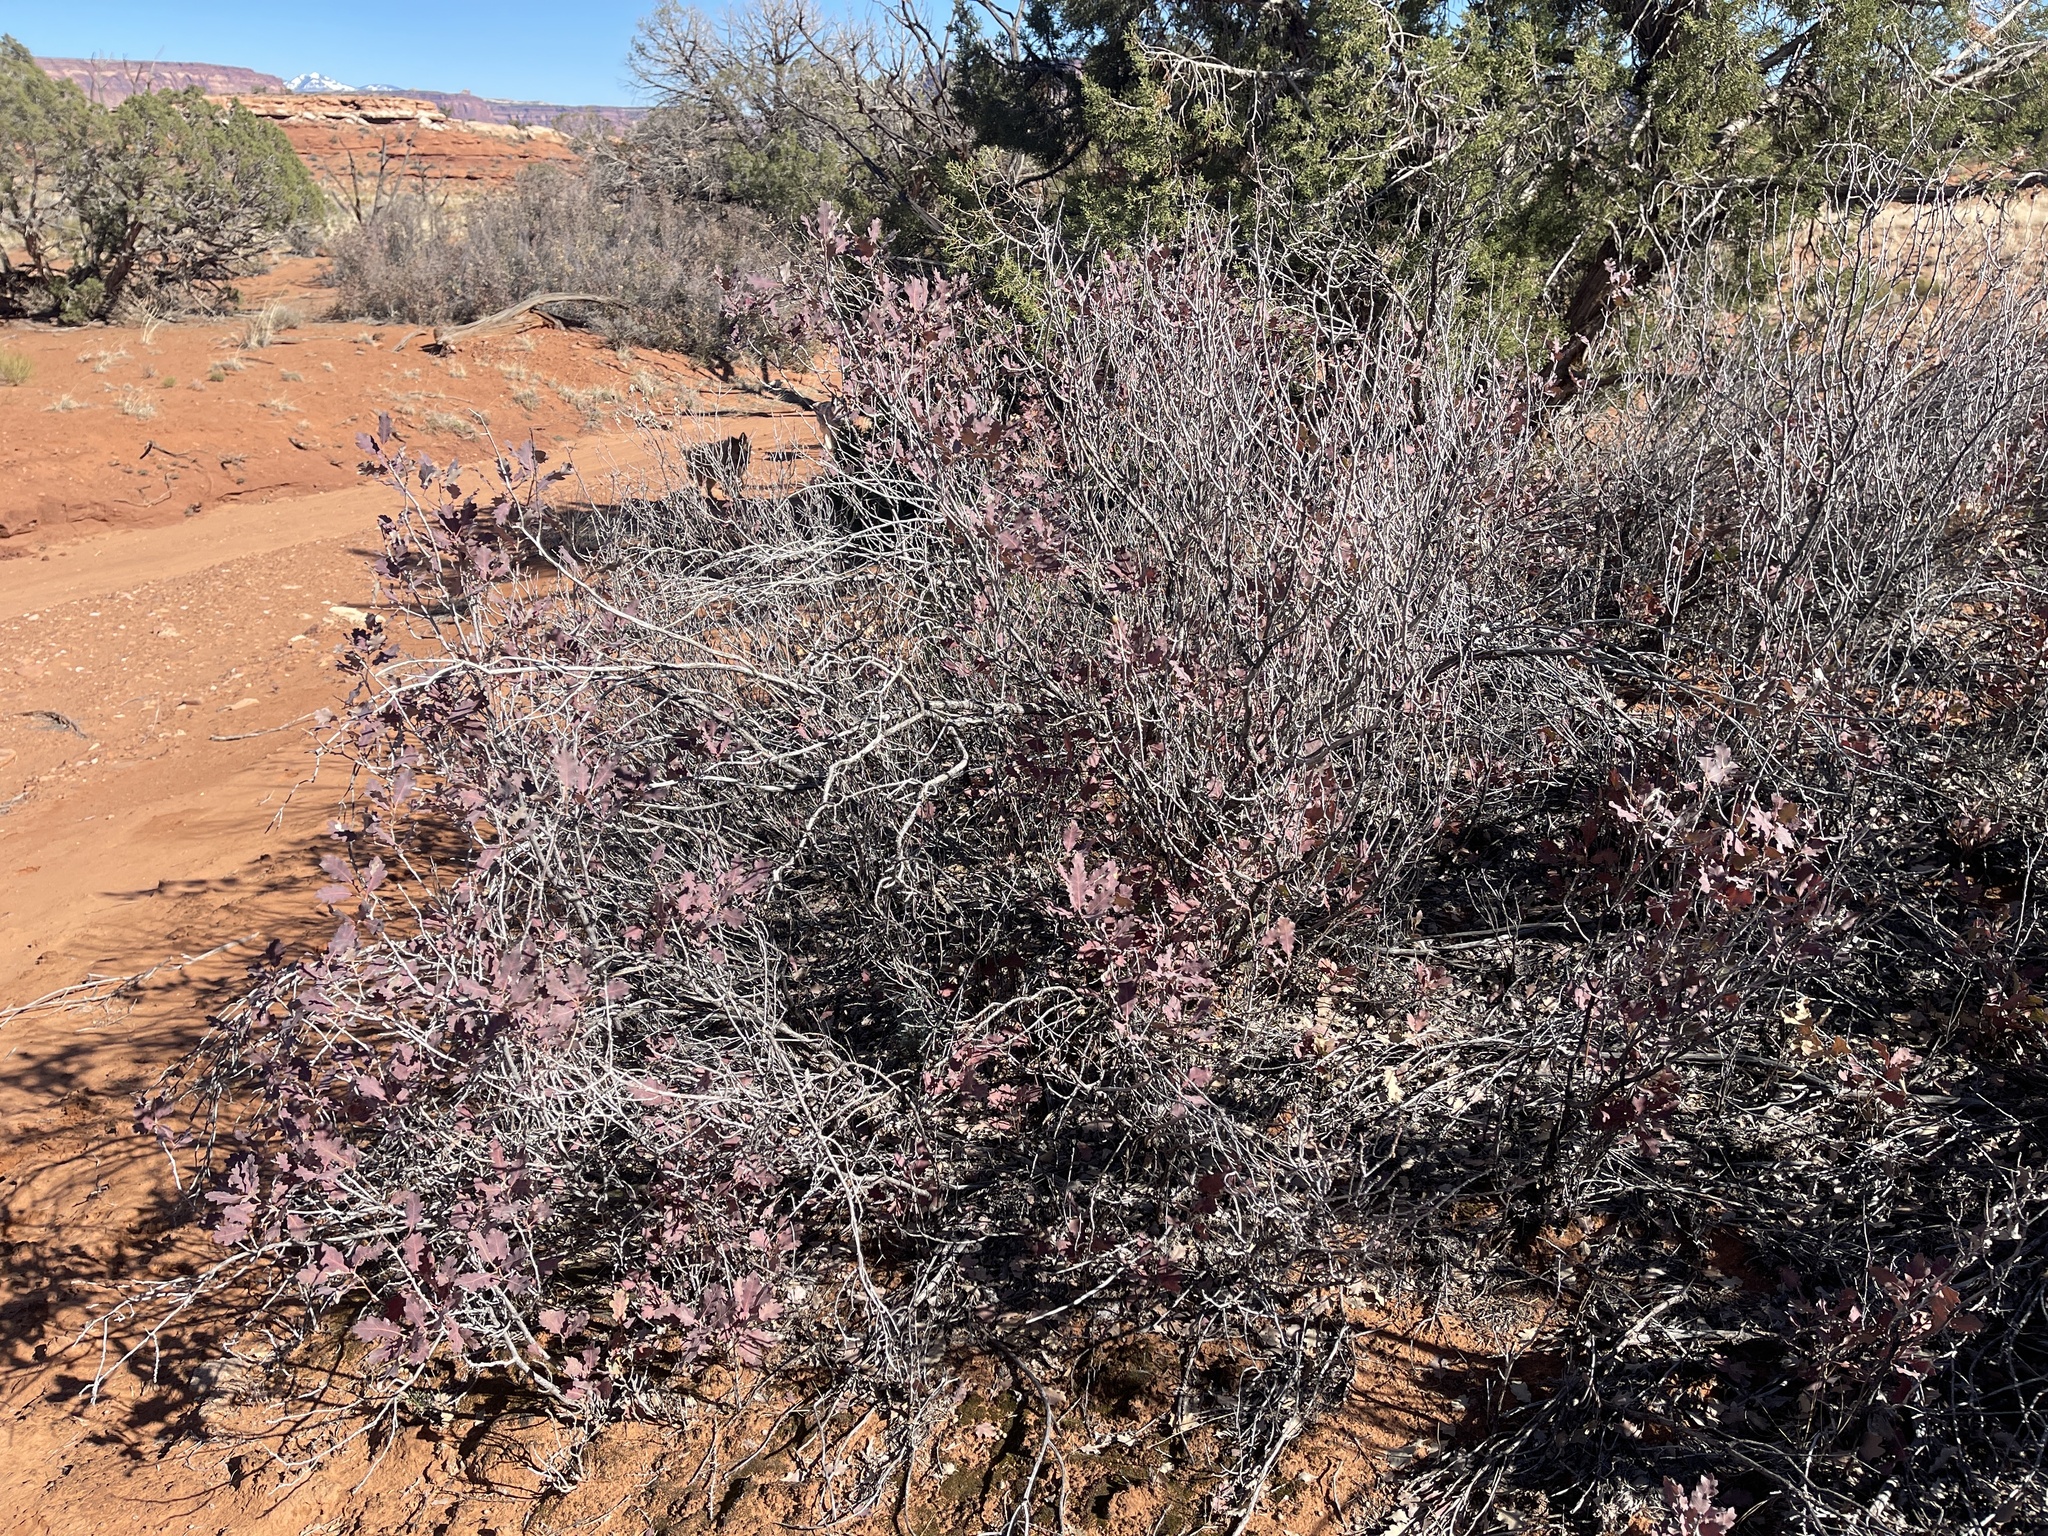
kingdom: Plantae
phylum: Tracheophyta
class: Magnoliopsida
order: Fagales
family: Fagaceae
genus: Quercus
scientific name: Quercus welshii
